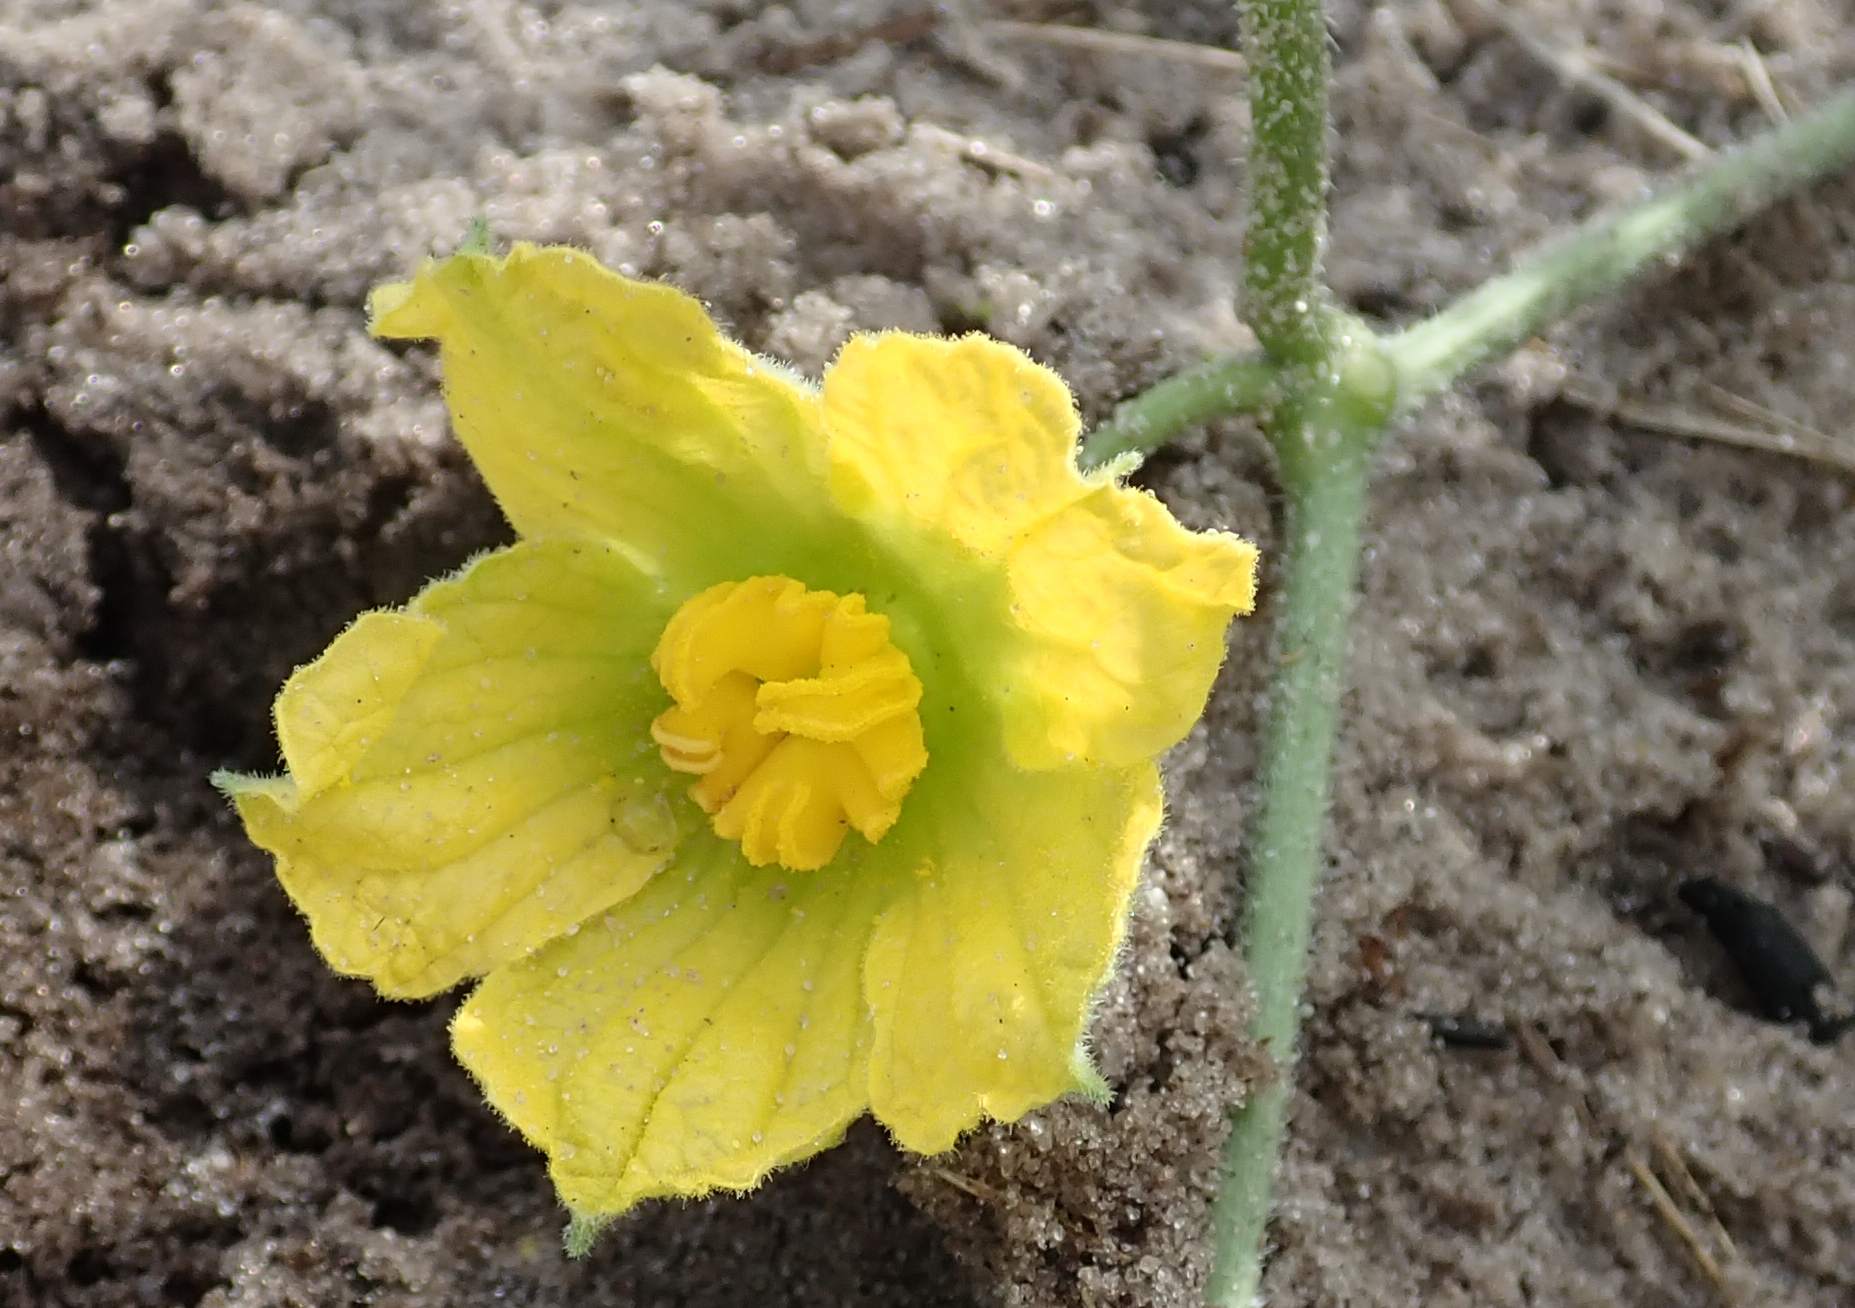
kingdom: Plantae
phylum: Tracheophyta
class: Magnoliopsida
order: Cucurbitales
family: Cucurbitaceae
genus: Citrullus
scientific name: Citrullus naudinianus
